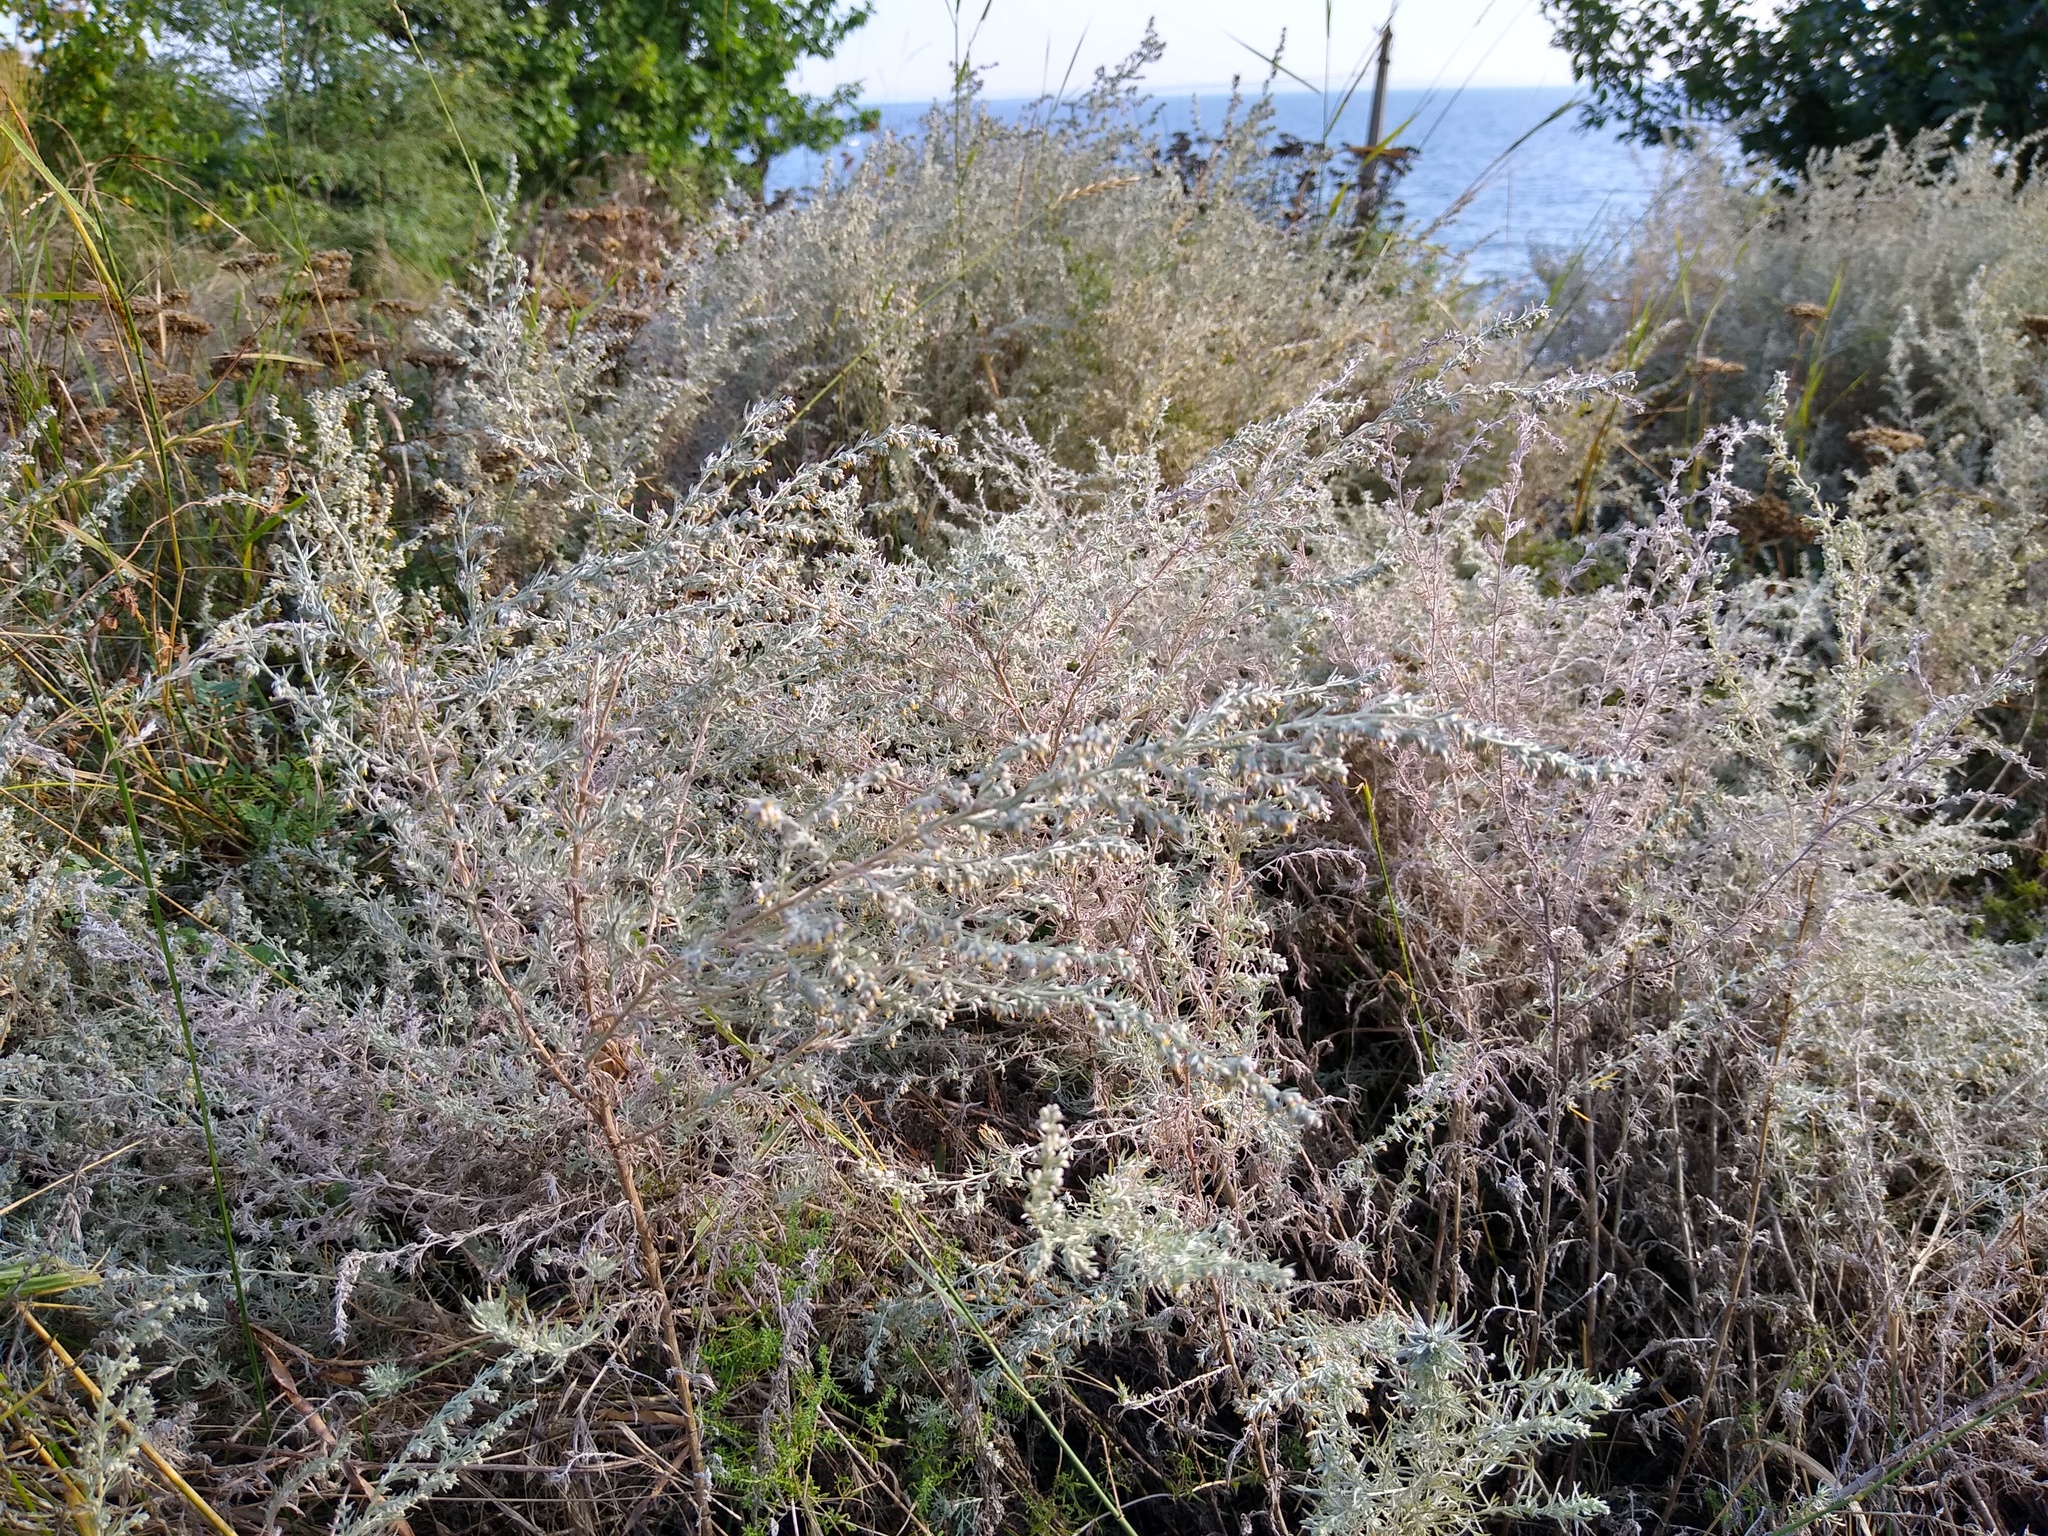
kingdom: Plantae
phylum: Tracheophyta
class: Magnoliopsida
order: Asterales
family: Asteraceae
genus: Artemisia
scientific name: Artemisia austriaca
